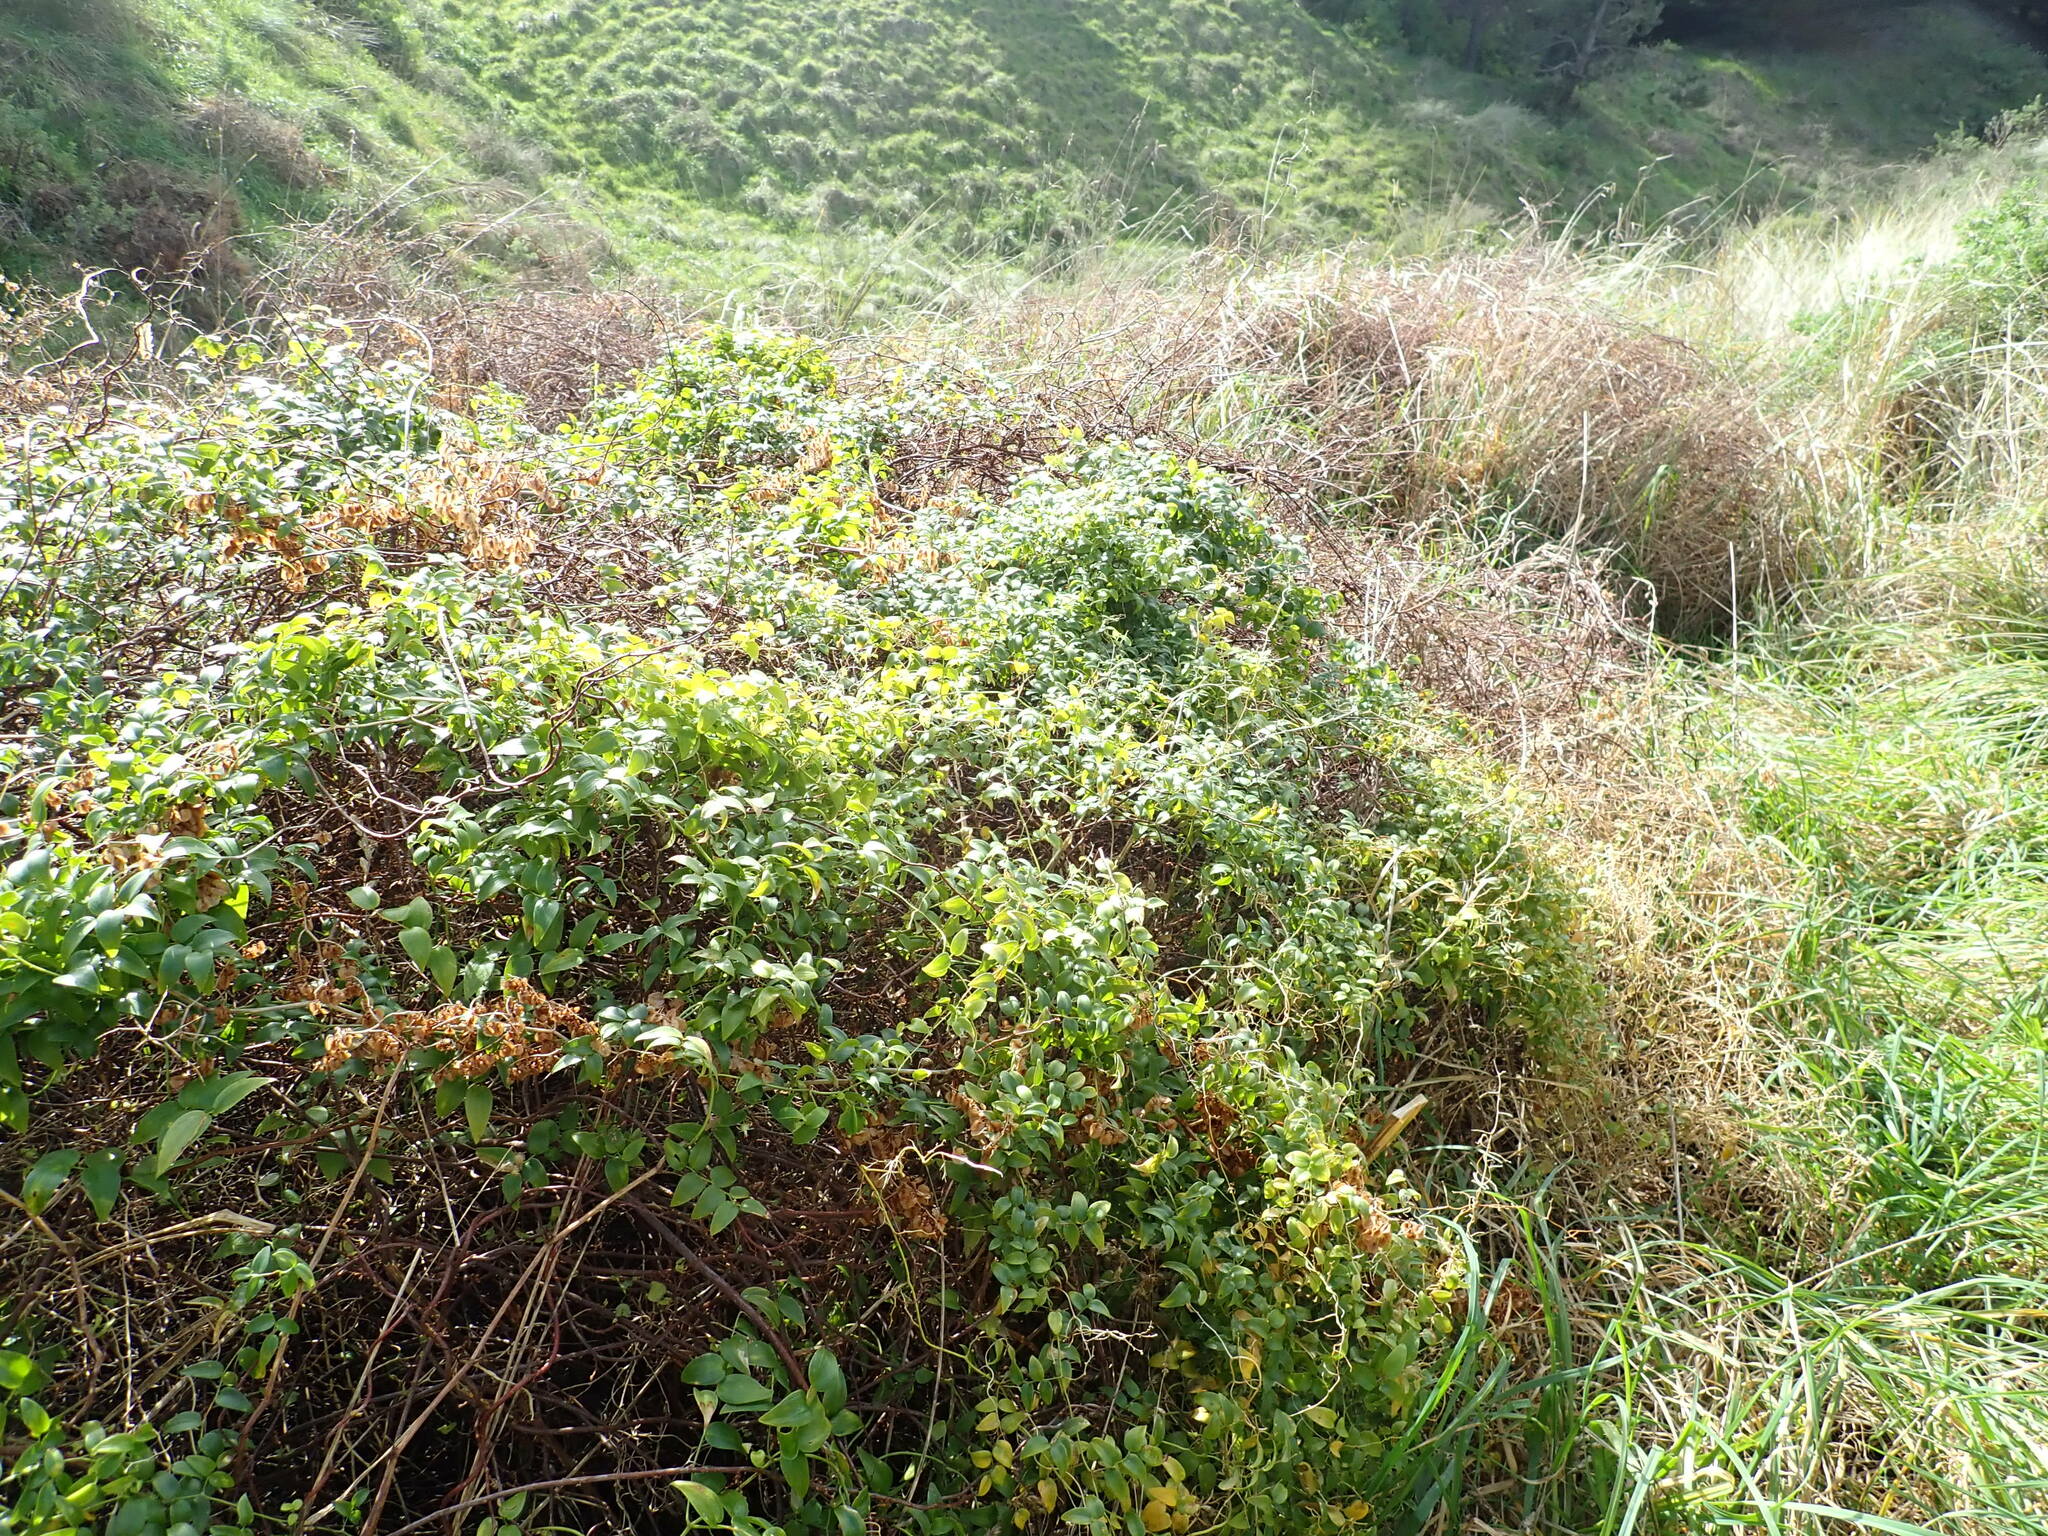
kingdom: Plantae
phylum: Tracheophyta
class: Liliopsida
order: Asparagales
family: Asparagaceae
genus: Asparagus
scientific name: Asparagus asparagoides
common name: African asparagus fern
